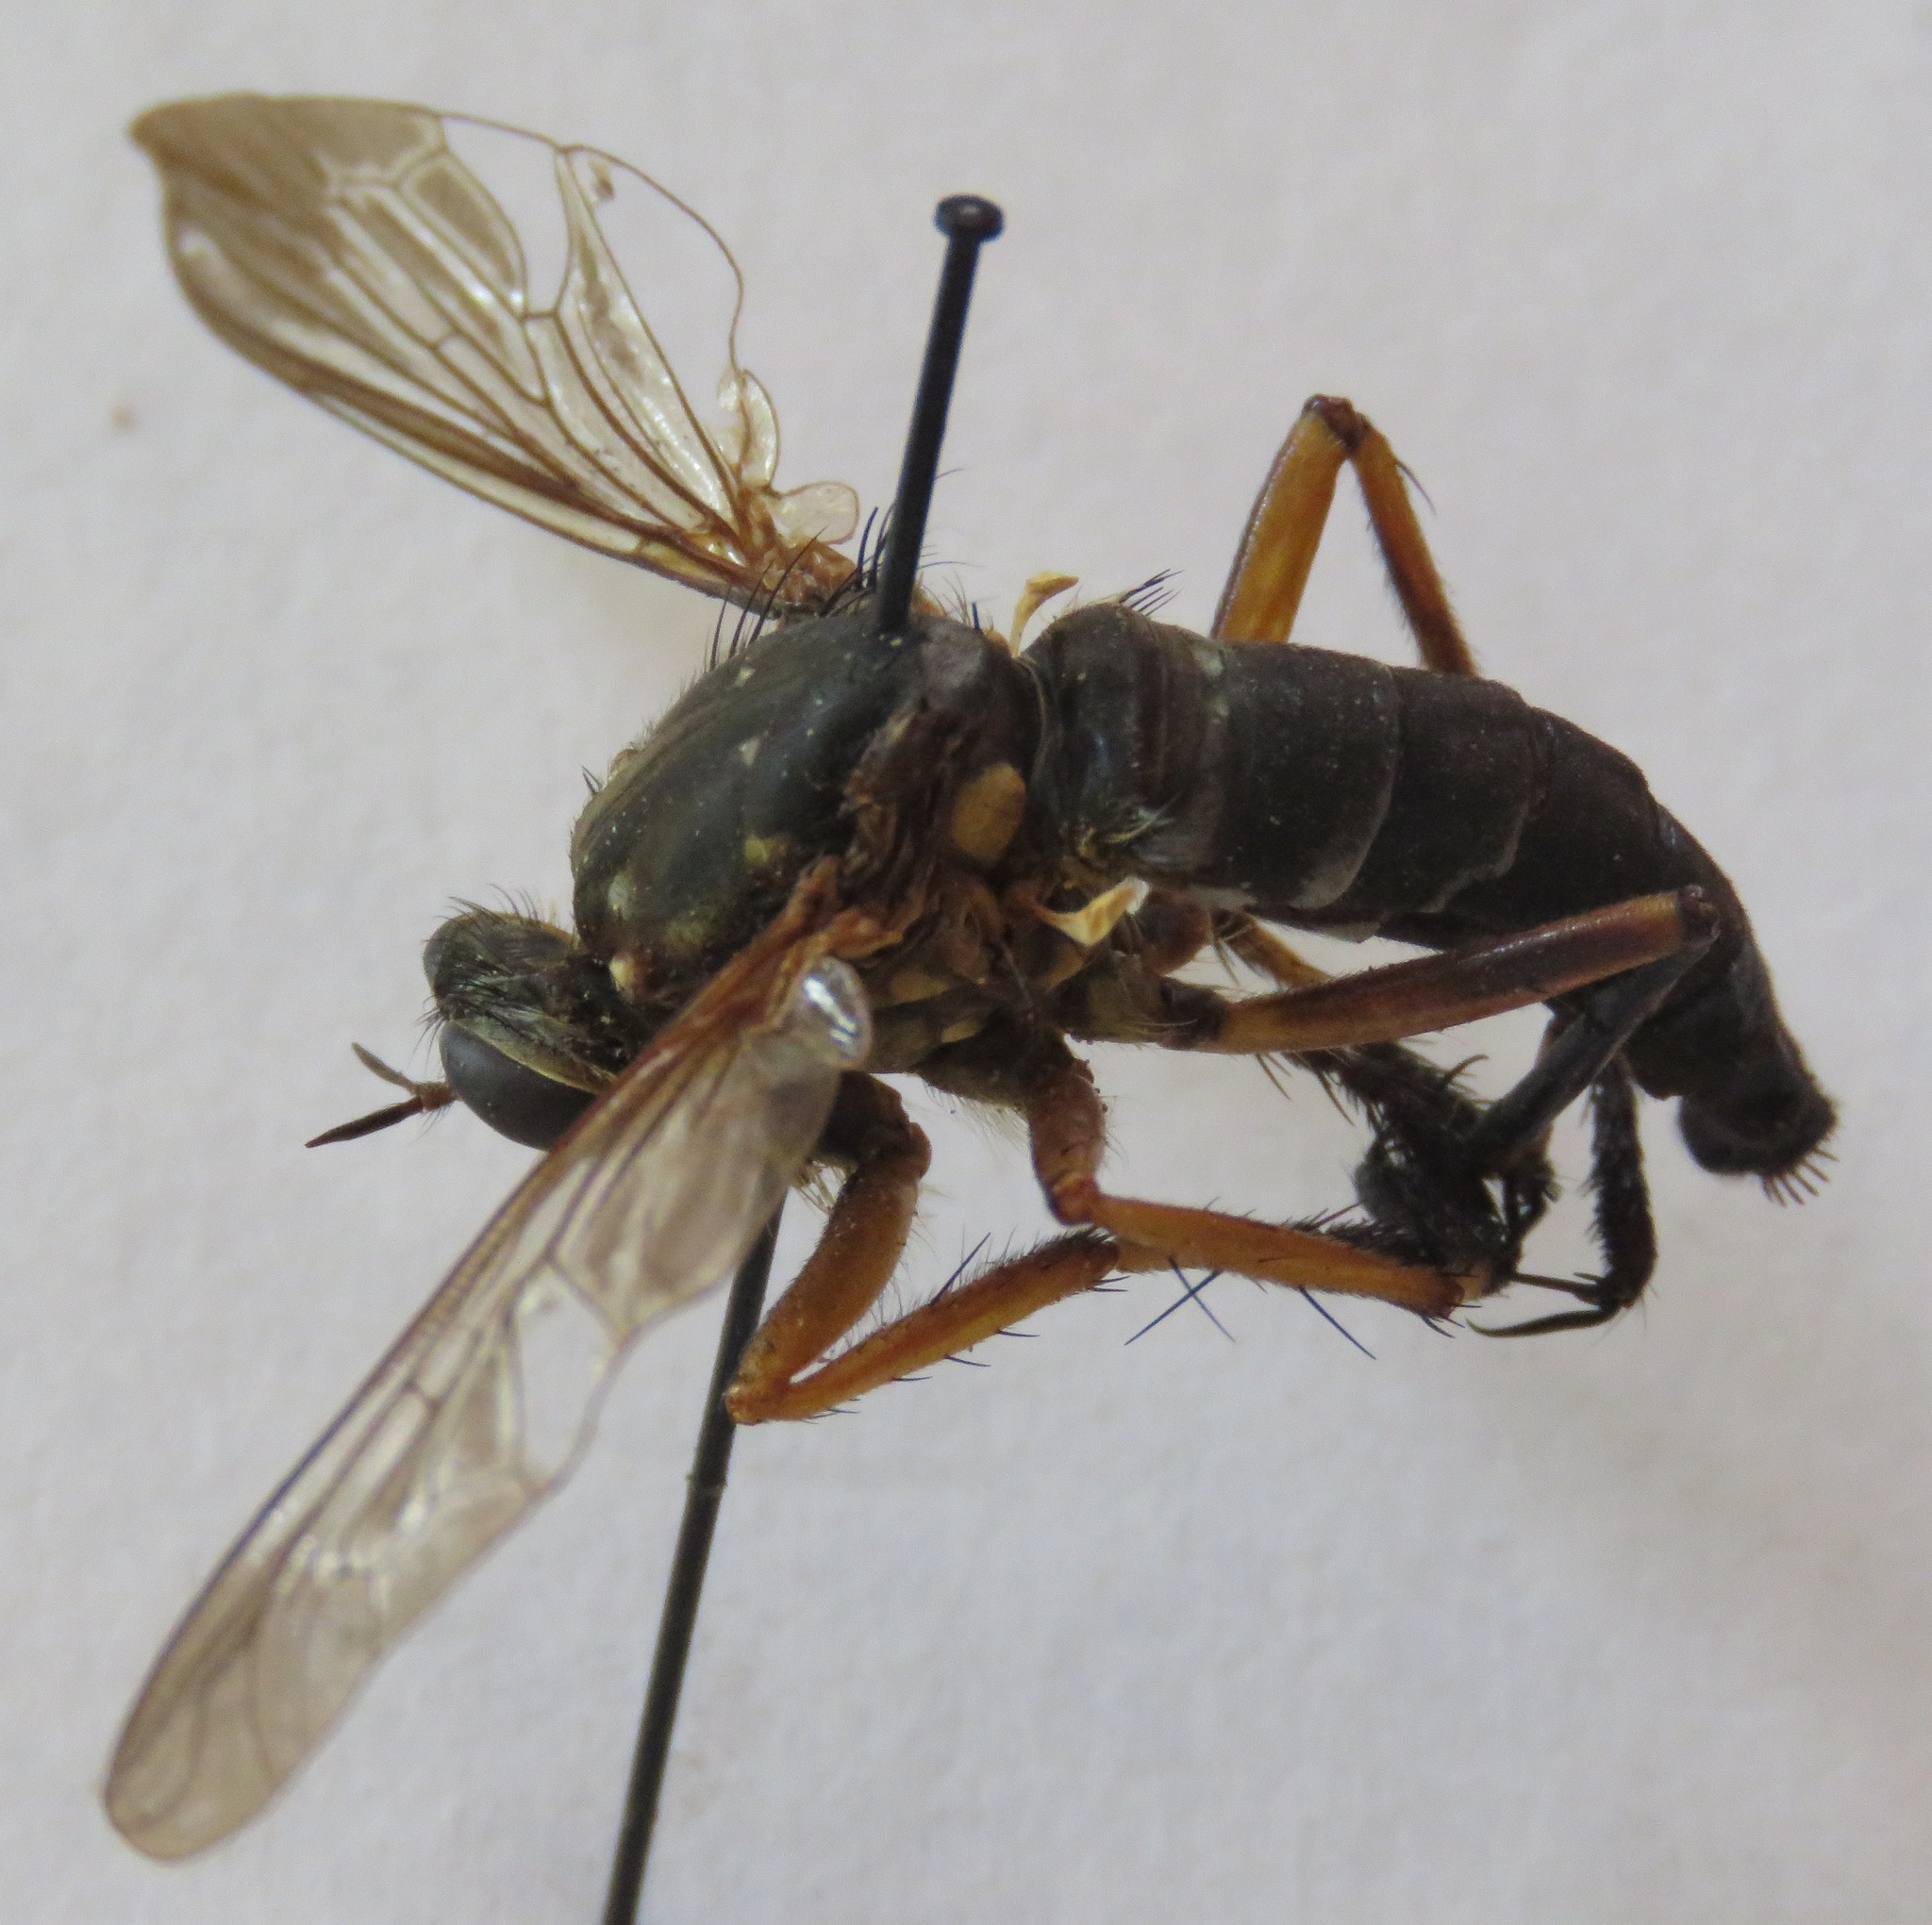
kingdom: Animalia
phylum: Arthropoda
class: Insecta
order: Diptera
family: Asilidae
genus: Dicranus
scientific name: Dicranus tucma
